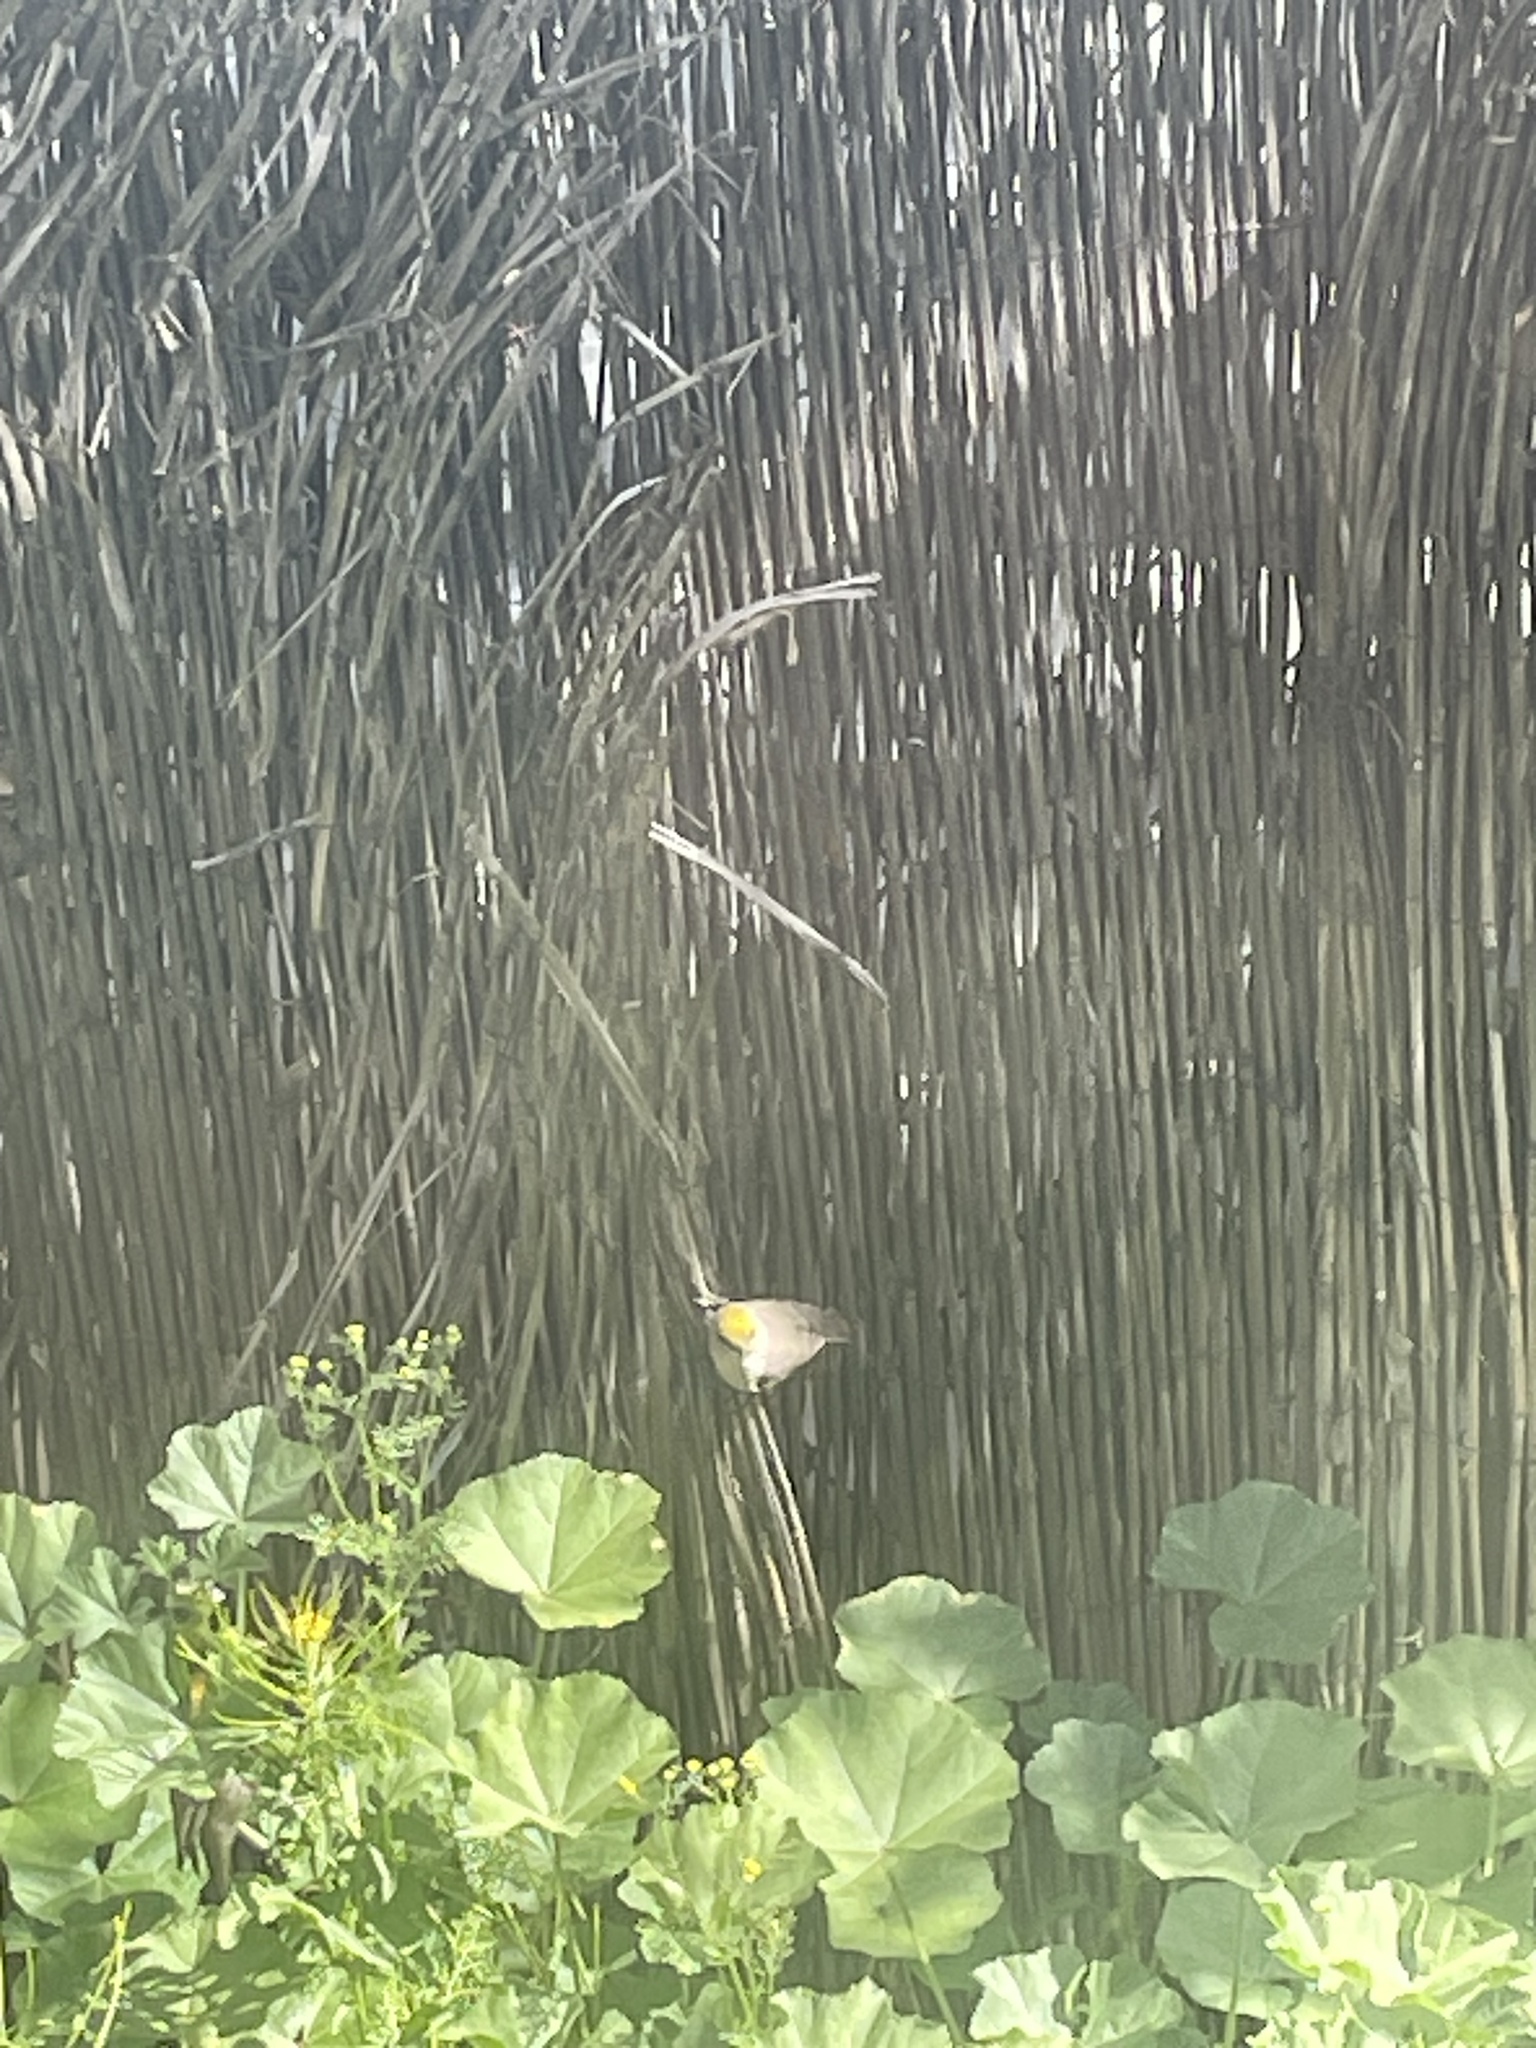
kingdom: Animalia
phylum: Chordata
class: Aves
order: Passeriformes
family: Remizidae
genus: Auriparus
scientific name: Auriparus flaviceps
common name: Verdin
